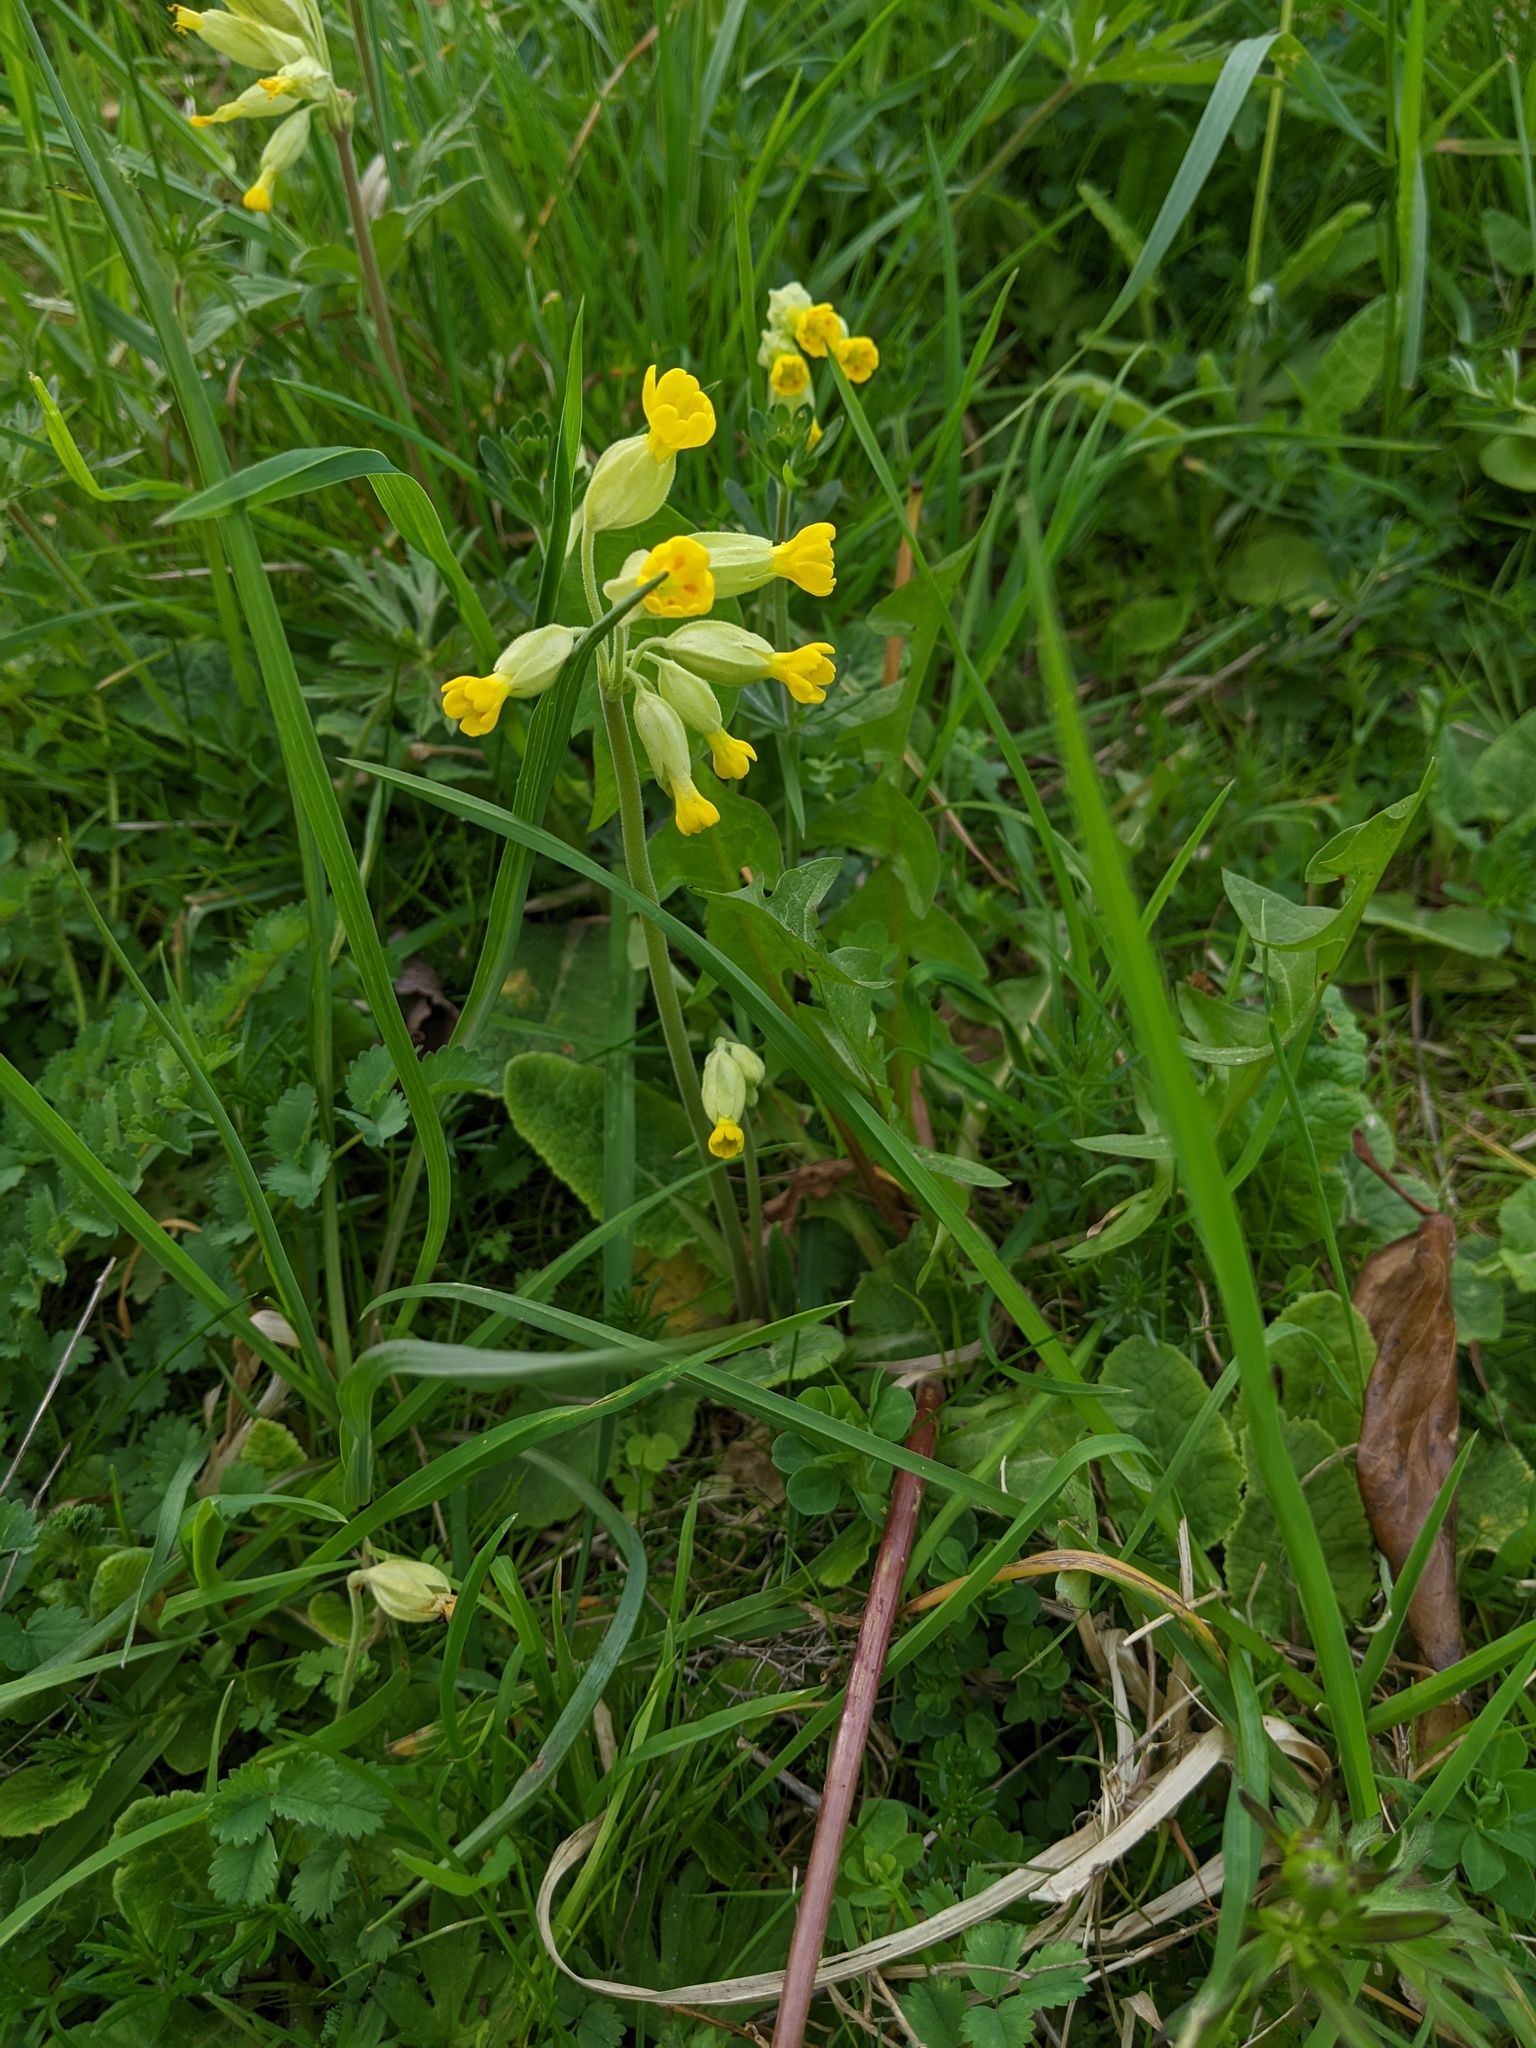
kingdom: Plantae
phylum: Tracheophyta
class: Magnoliopsida
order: Ericales
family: Primulaceae
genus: Primula
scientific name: Primula veris
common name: Cowslip
